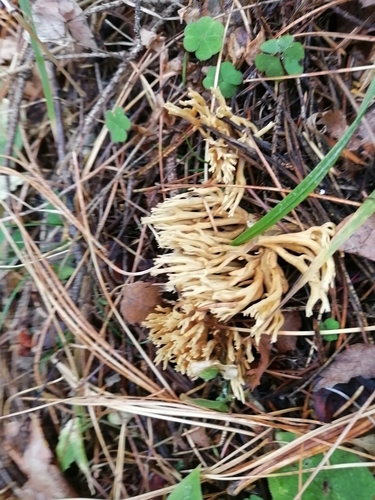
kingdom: Fungi
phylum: Basidiomycota
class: Agaricomycetes
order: Gomphales
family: Gomphaceae
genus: Ramaria
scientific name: Ramaria
